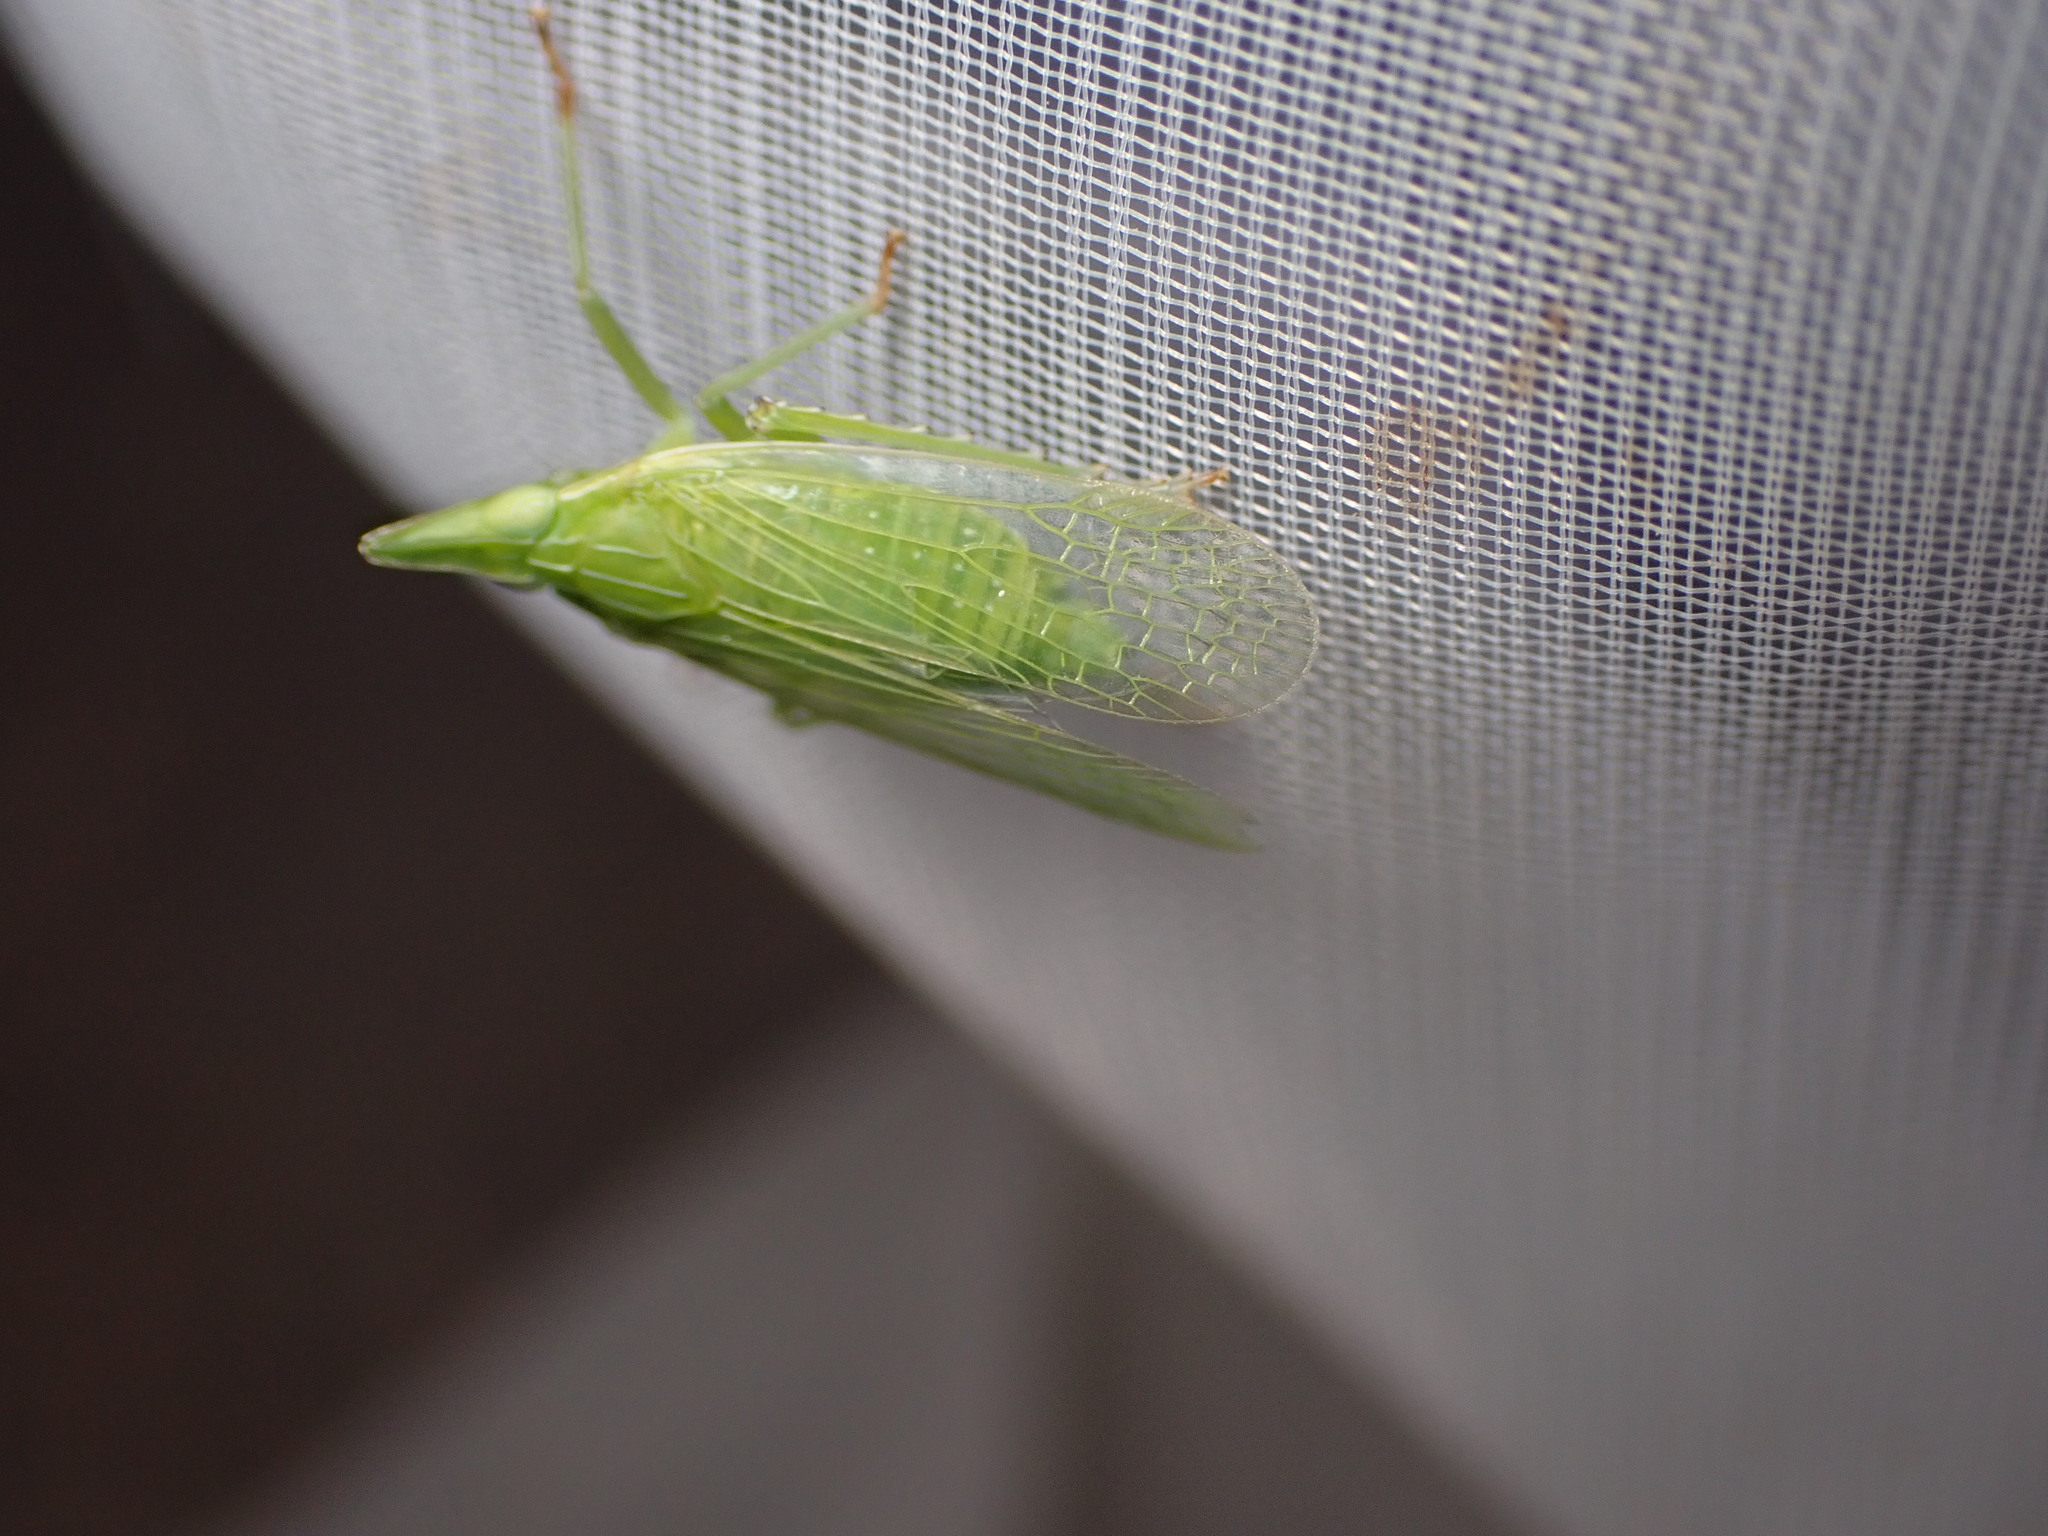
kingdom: Animalia
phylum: Arthropoda
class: Insecta
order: Hemiptera
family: Dictyopharidae
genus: Dictyophara
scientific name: Dictyophara europaea
